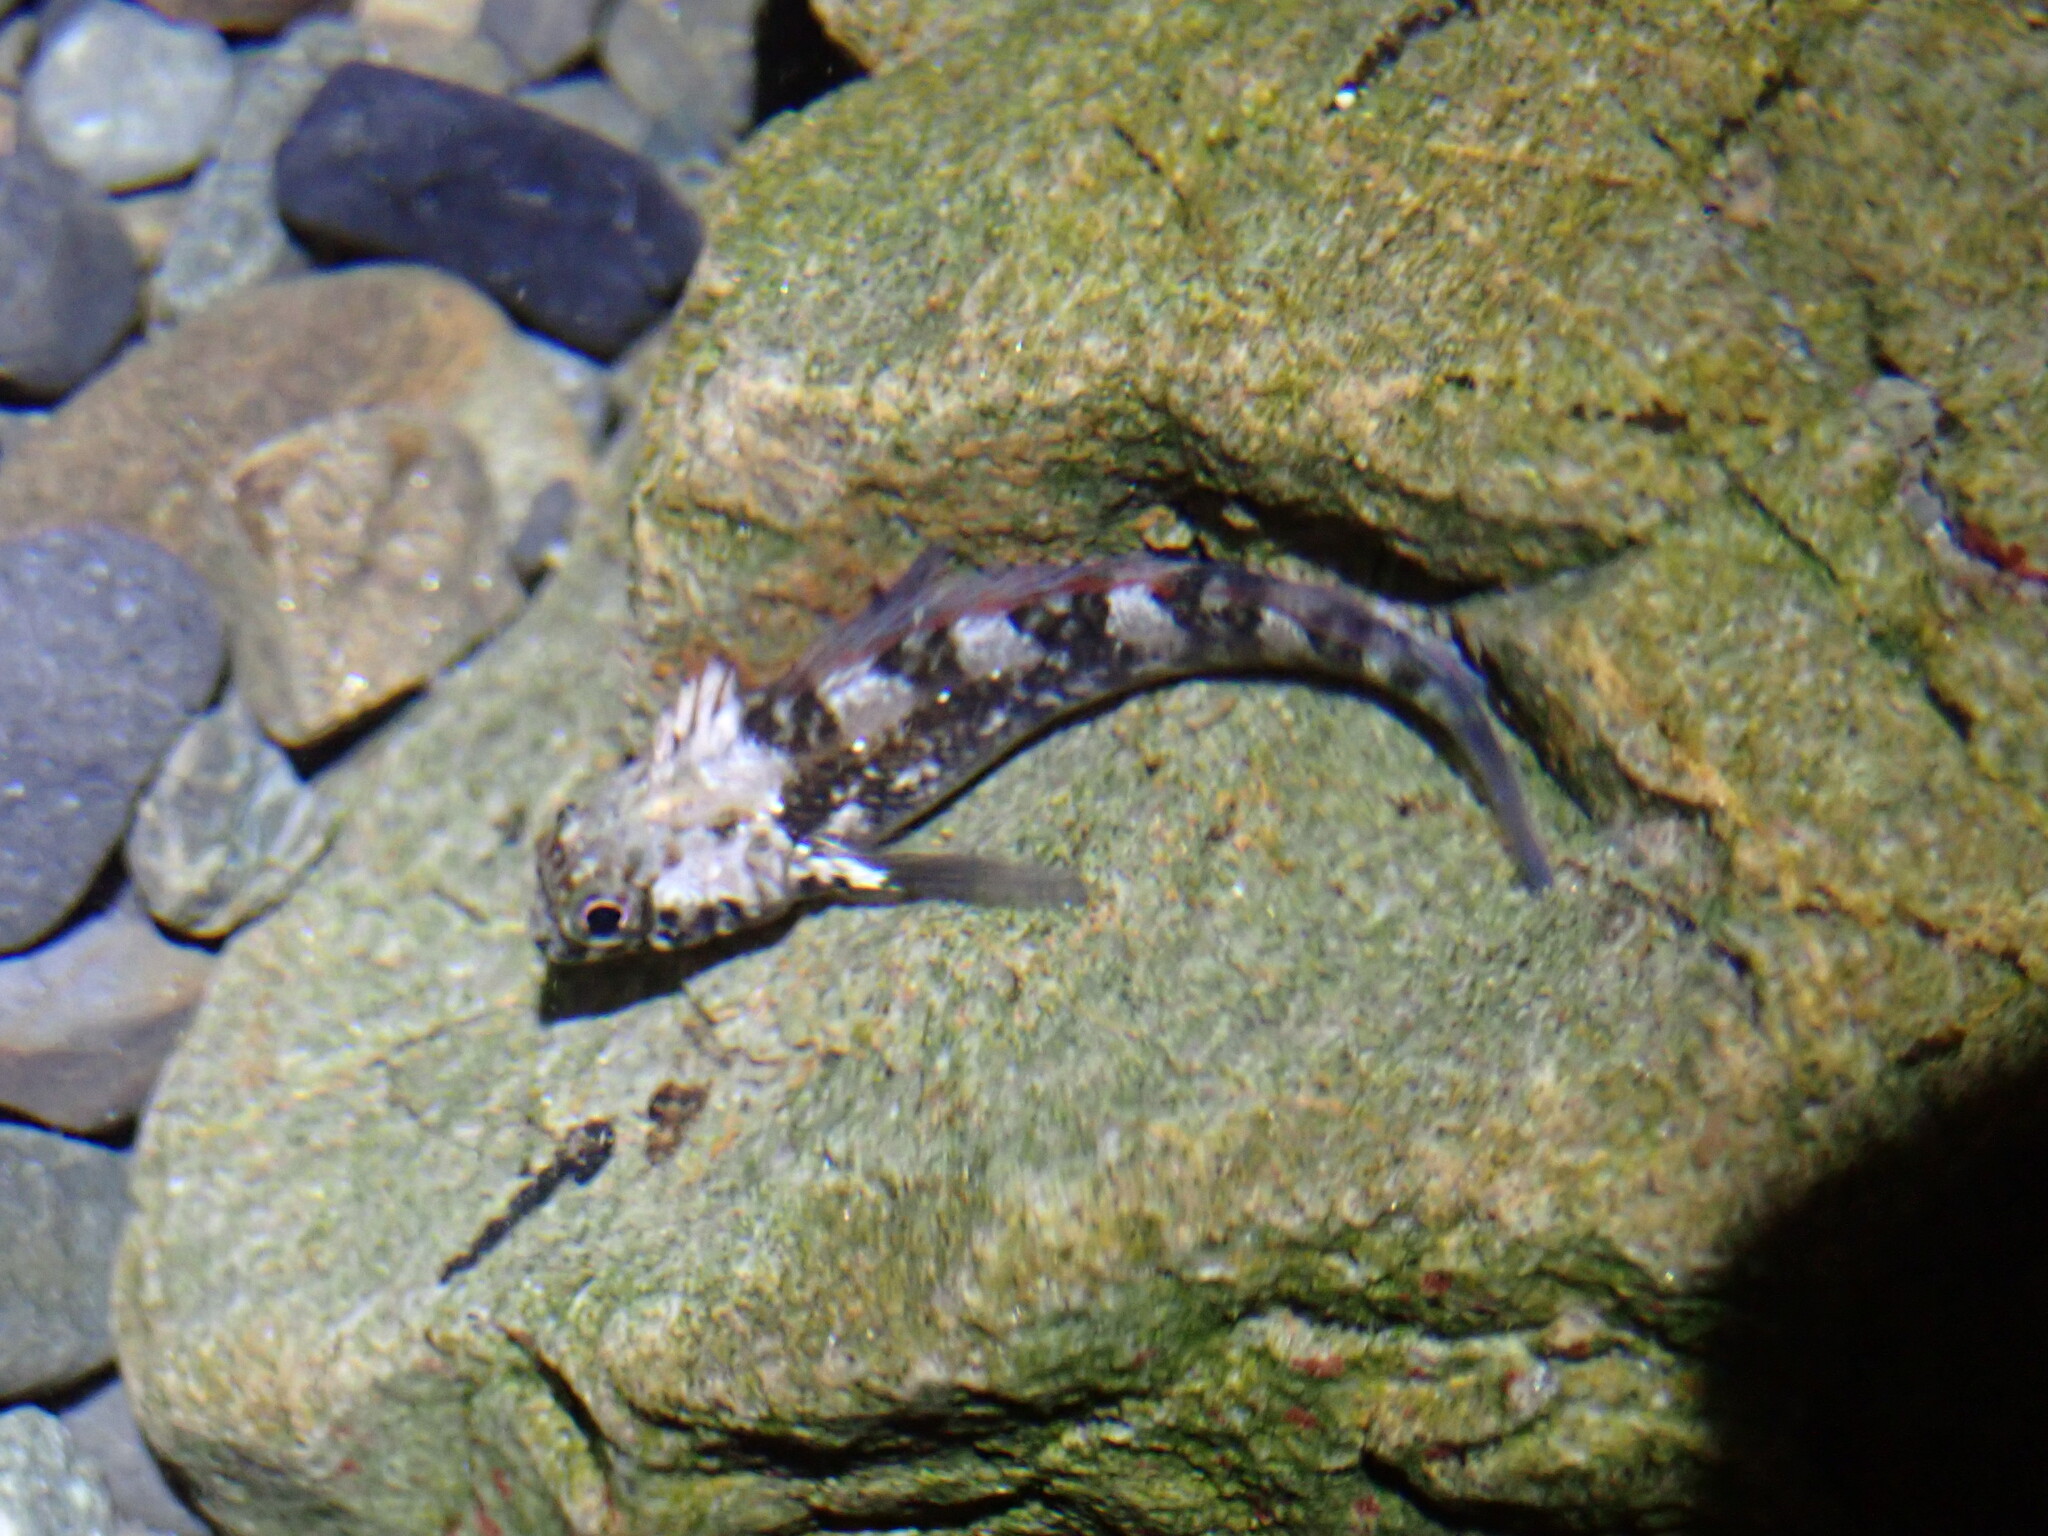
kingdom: Animalia
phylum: Chordata
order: Perciformes
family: Tripterygiidae
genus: Forsterygion
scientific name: Forsterygion lapillum
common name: Common triplefin
